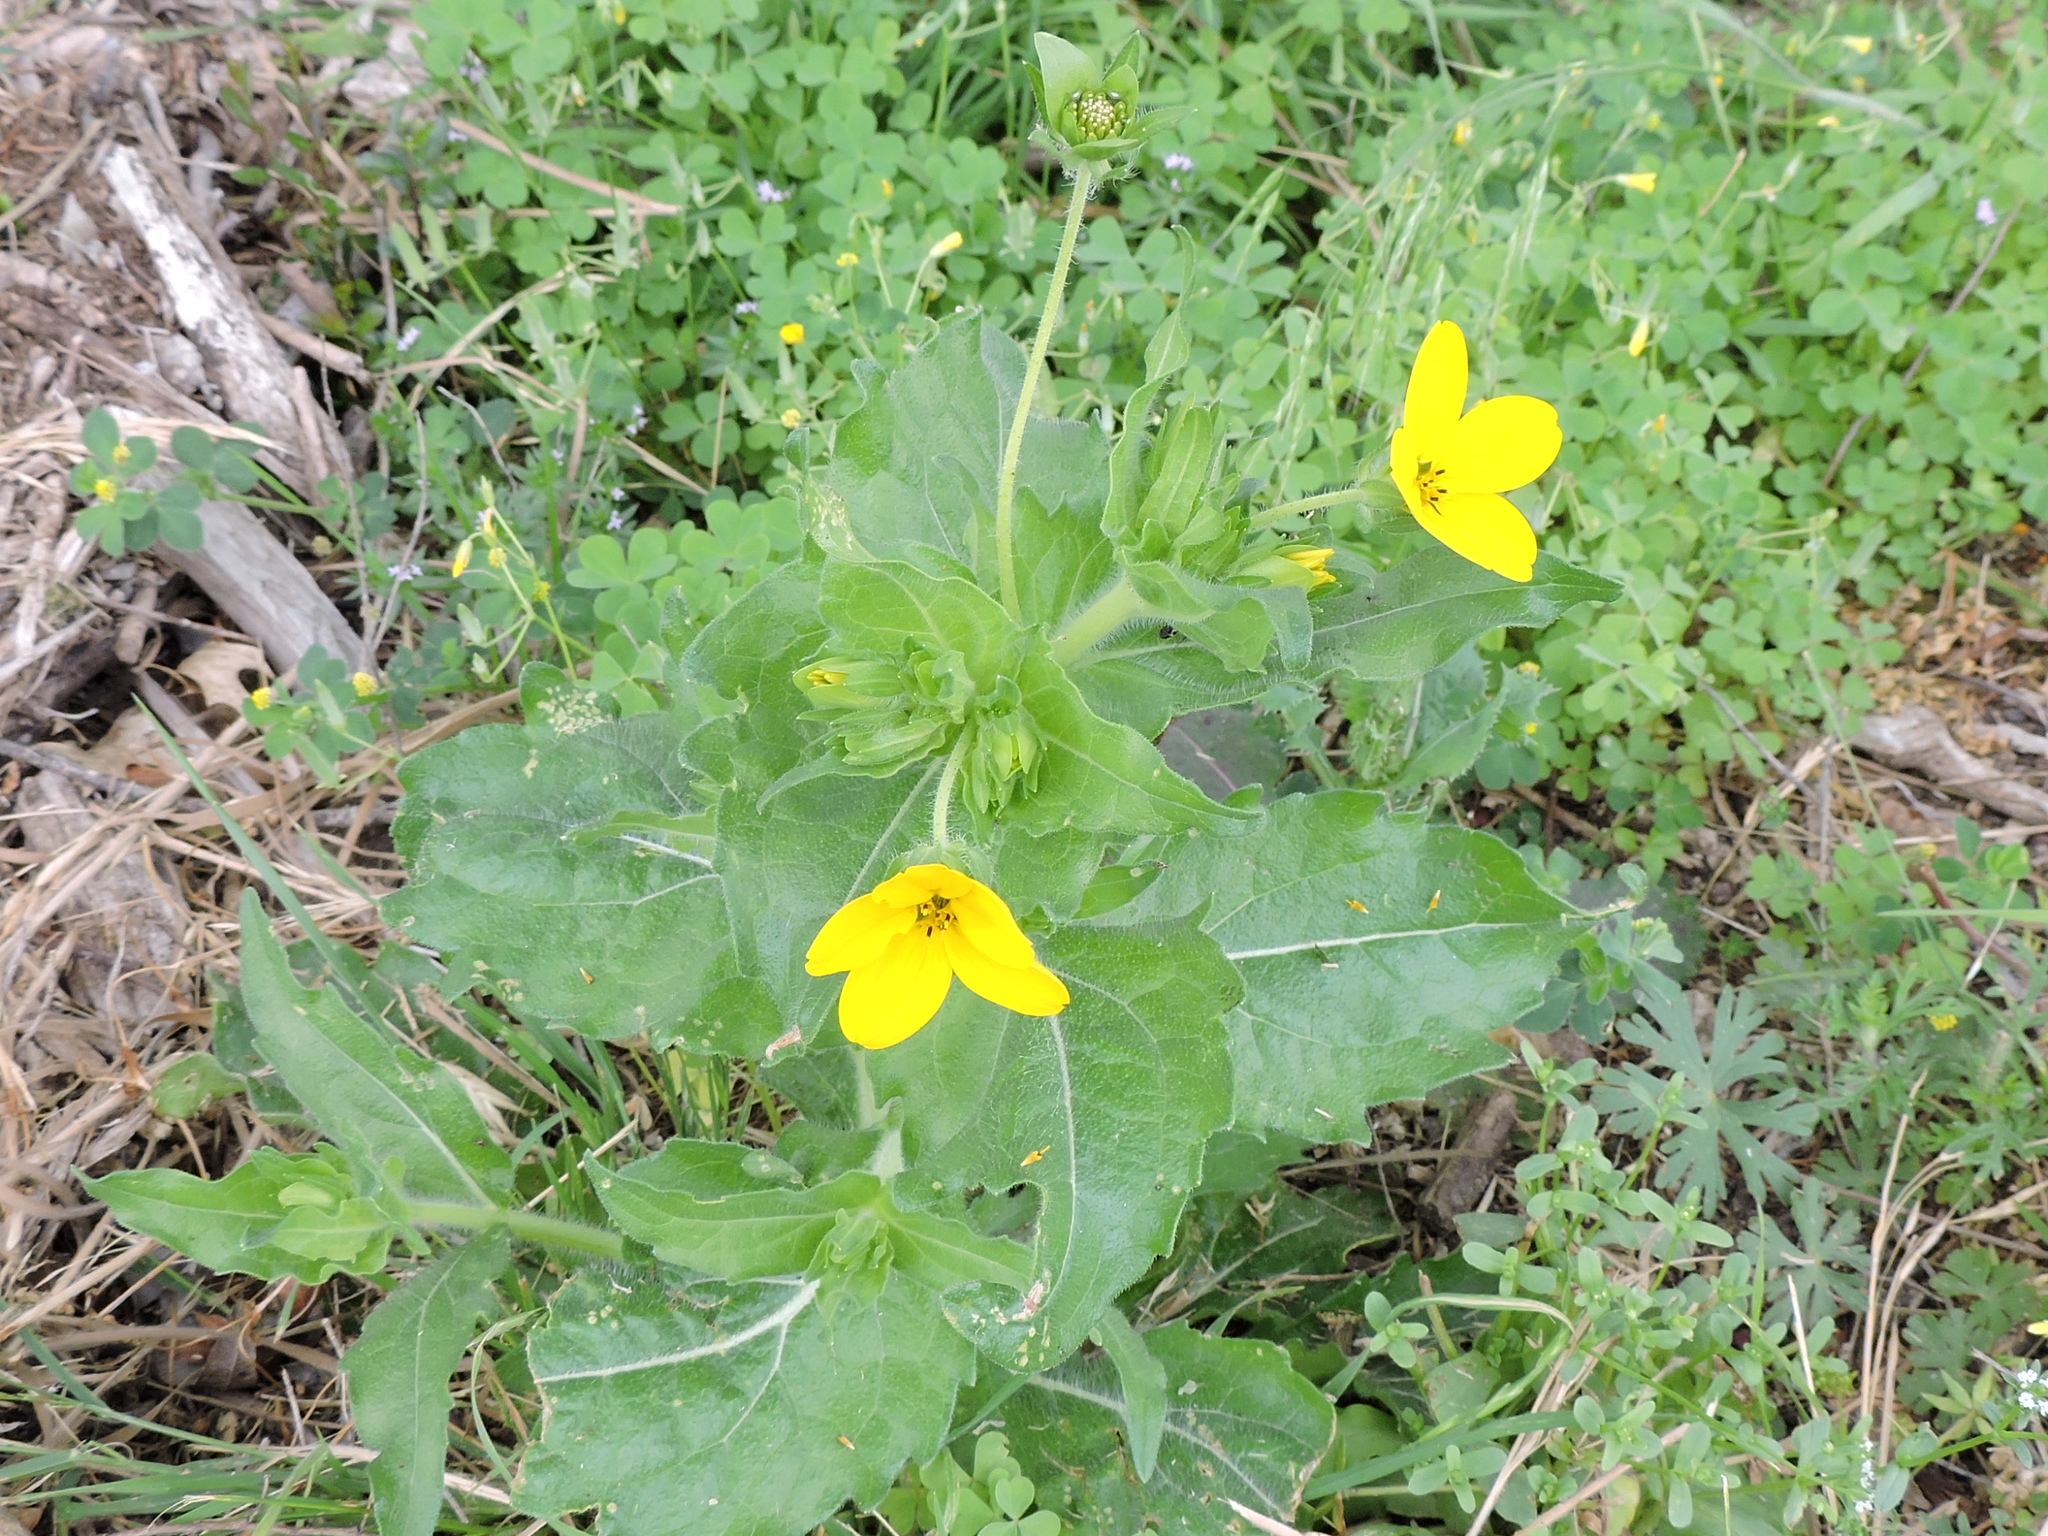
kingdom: Plantae
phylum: Tracheophyta
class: Magnoliopsida
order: Asterales
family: Asteraceae
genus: Lindheimera
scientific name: Lindheimera texana
